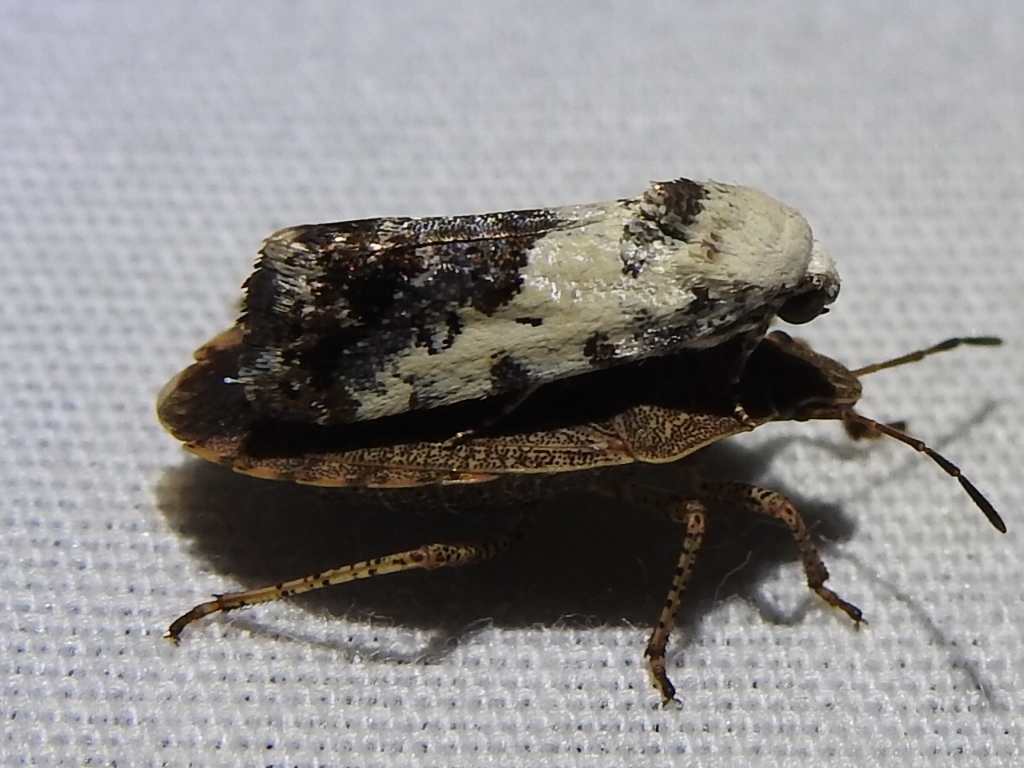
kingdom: Animalia
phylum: Arthropoda
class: Insecta
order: Lepidoptera
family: Noctuidae
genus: Acontia
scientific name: Acontia aprica
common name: Nun
